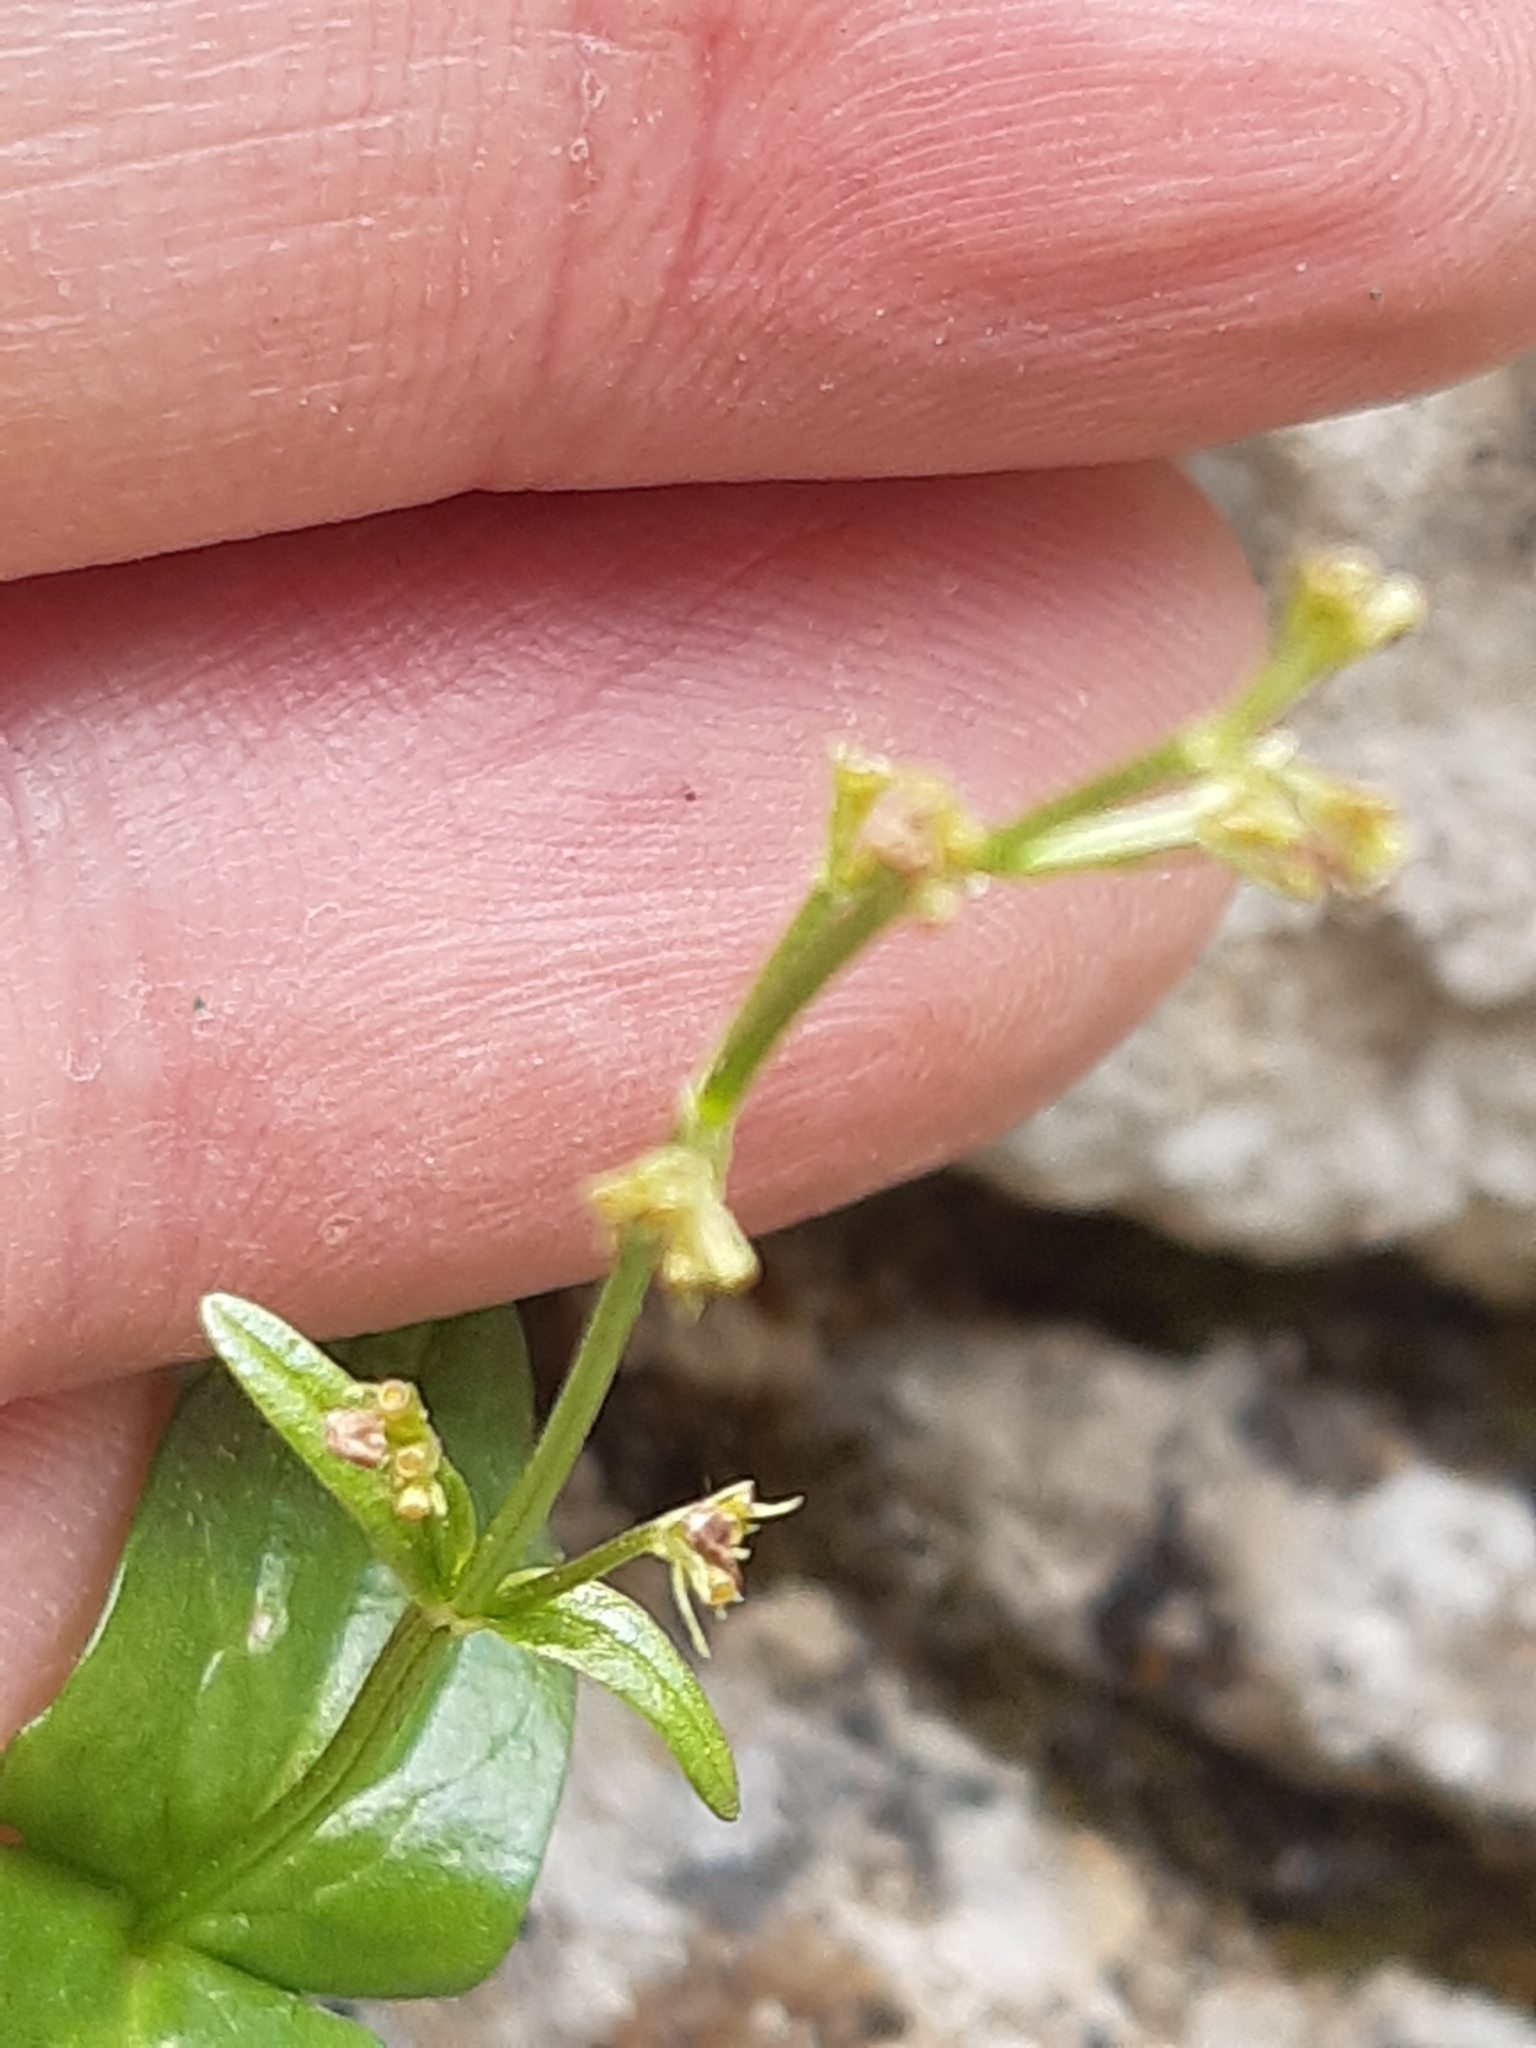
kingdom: Plantae
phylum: Tracheophyta
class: Magnoliopsida
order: Dipsacales
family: Caprifoliaceae
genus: Valeriana
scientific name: Valeriana elongata
